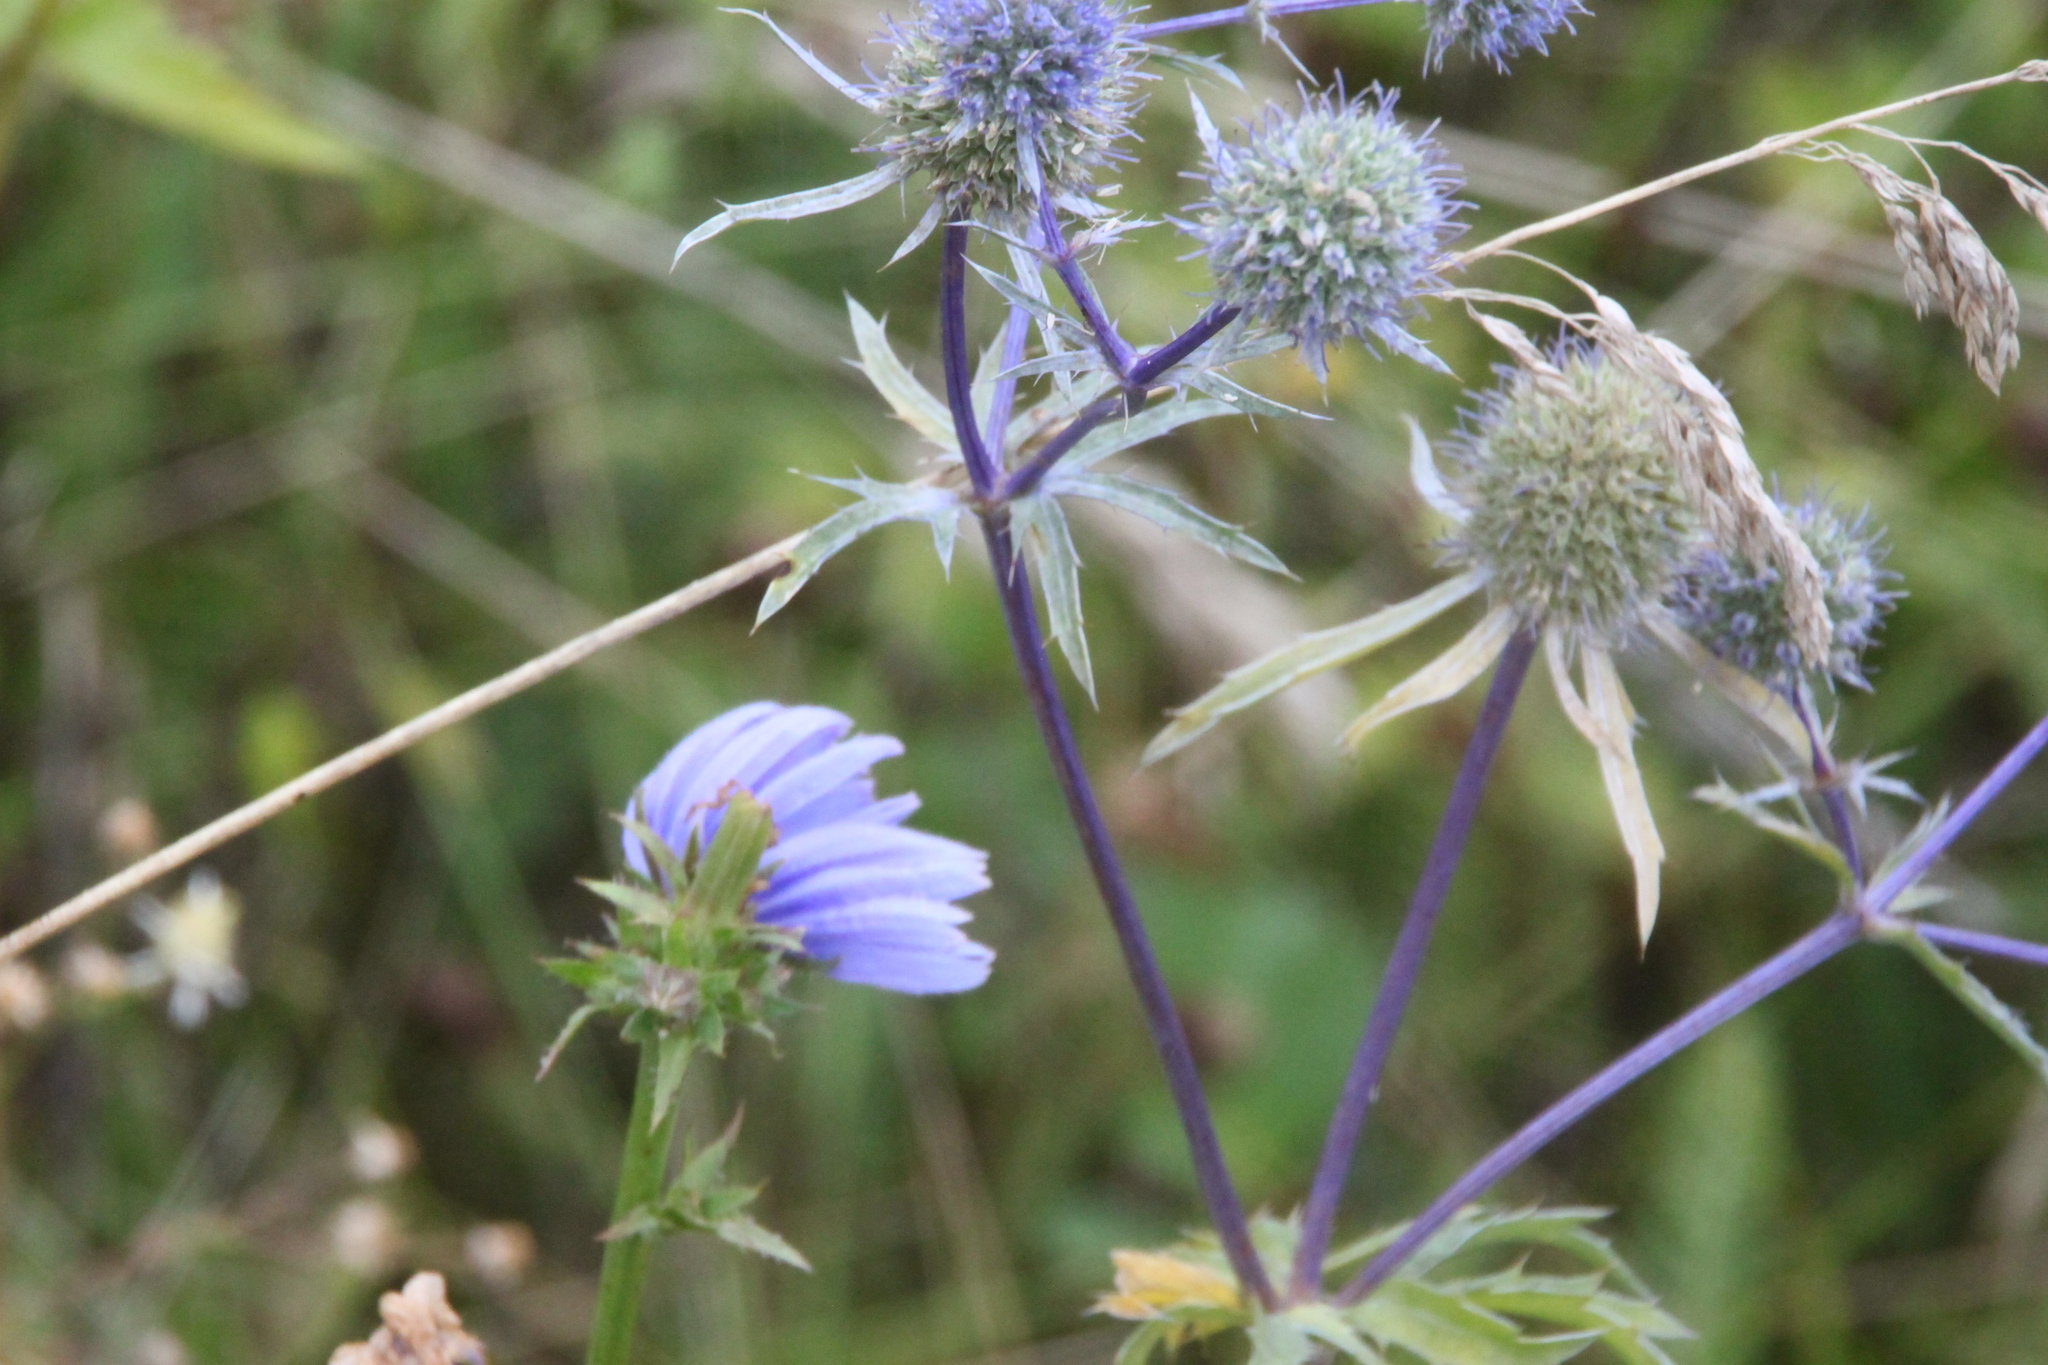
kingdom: Plantae
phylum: Tracheophyta
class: Magnoliopsida
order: Apiales
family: Apiaceae
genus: Eryngium
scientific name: Eryngium planum
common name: Blue eryngo
